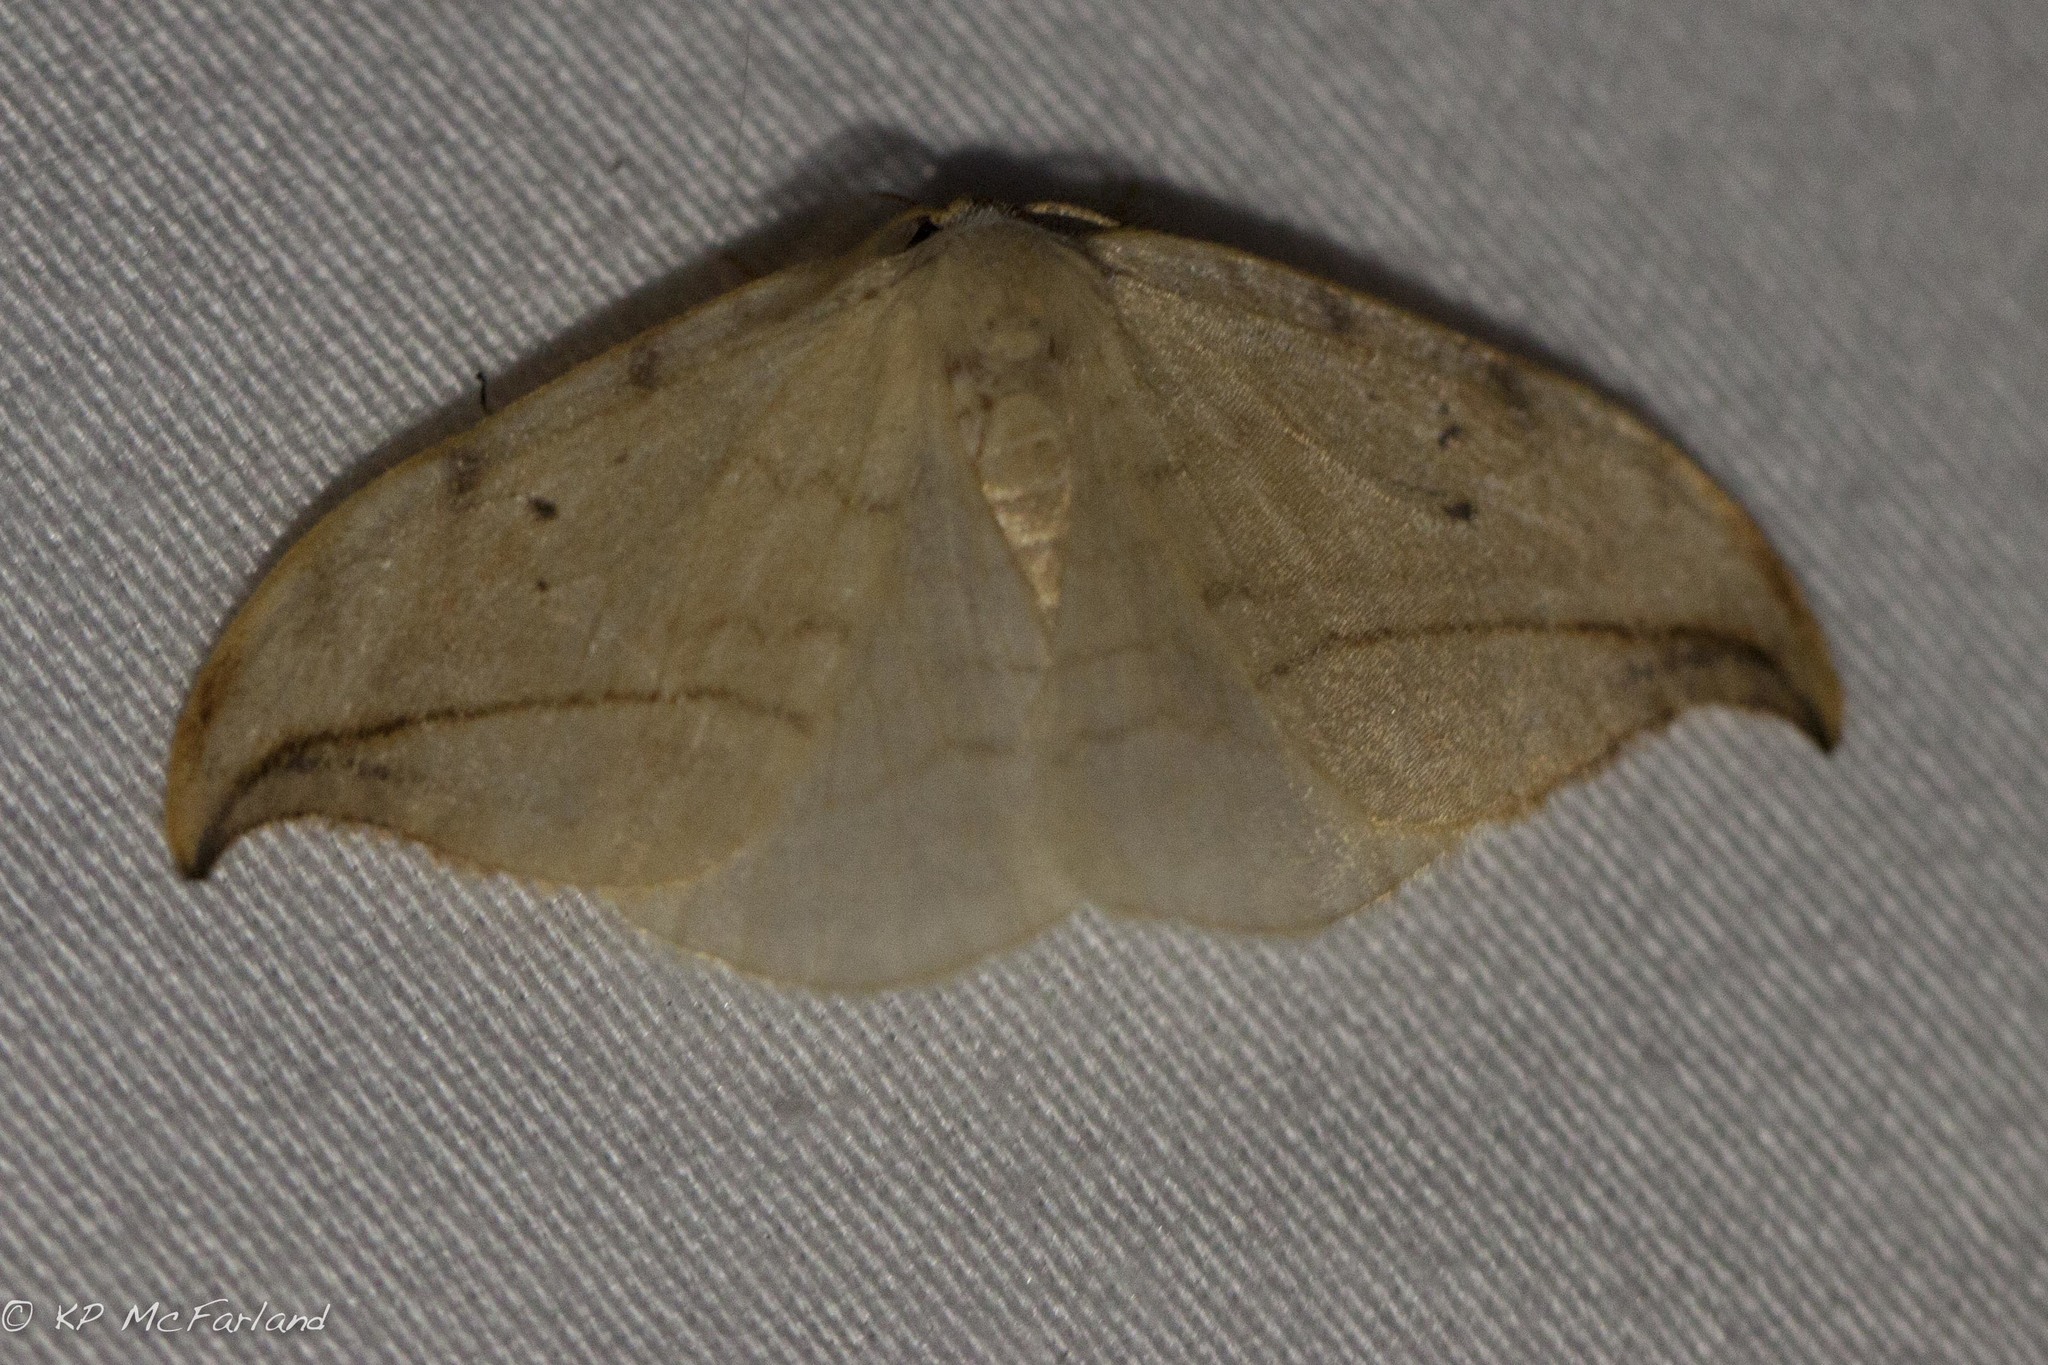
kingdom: Animalia
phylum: Arthropoda
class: Insecta
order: Lepidoptera
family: Drepanidae
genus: Drepana
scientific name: Drepana arcuata
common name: Arched hooktip moth
